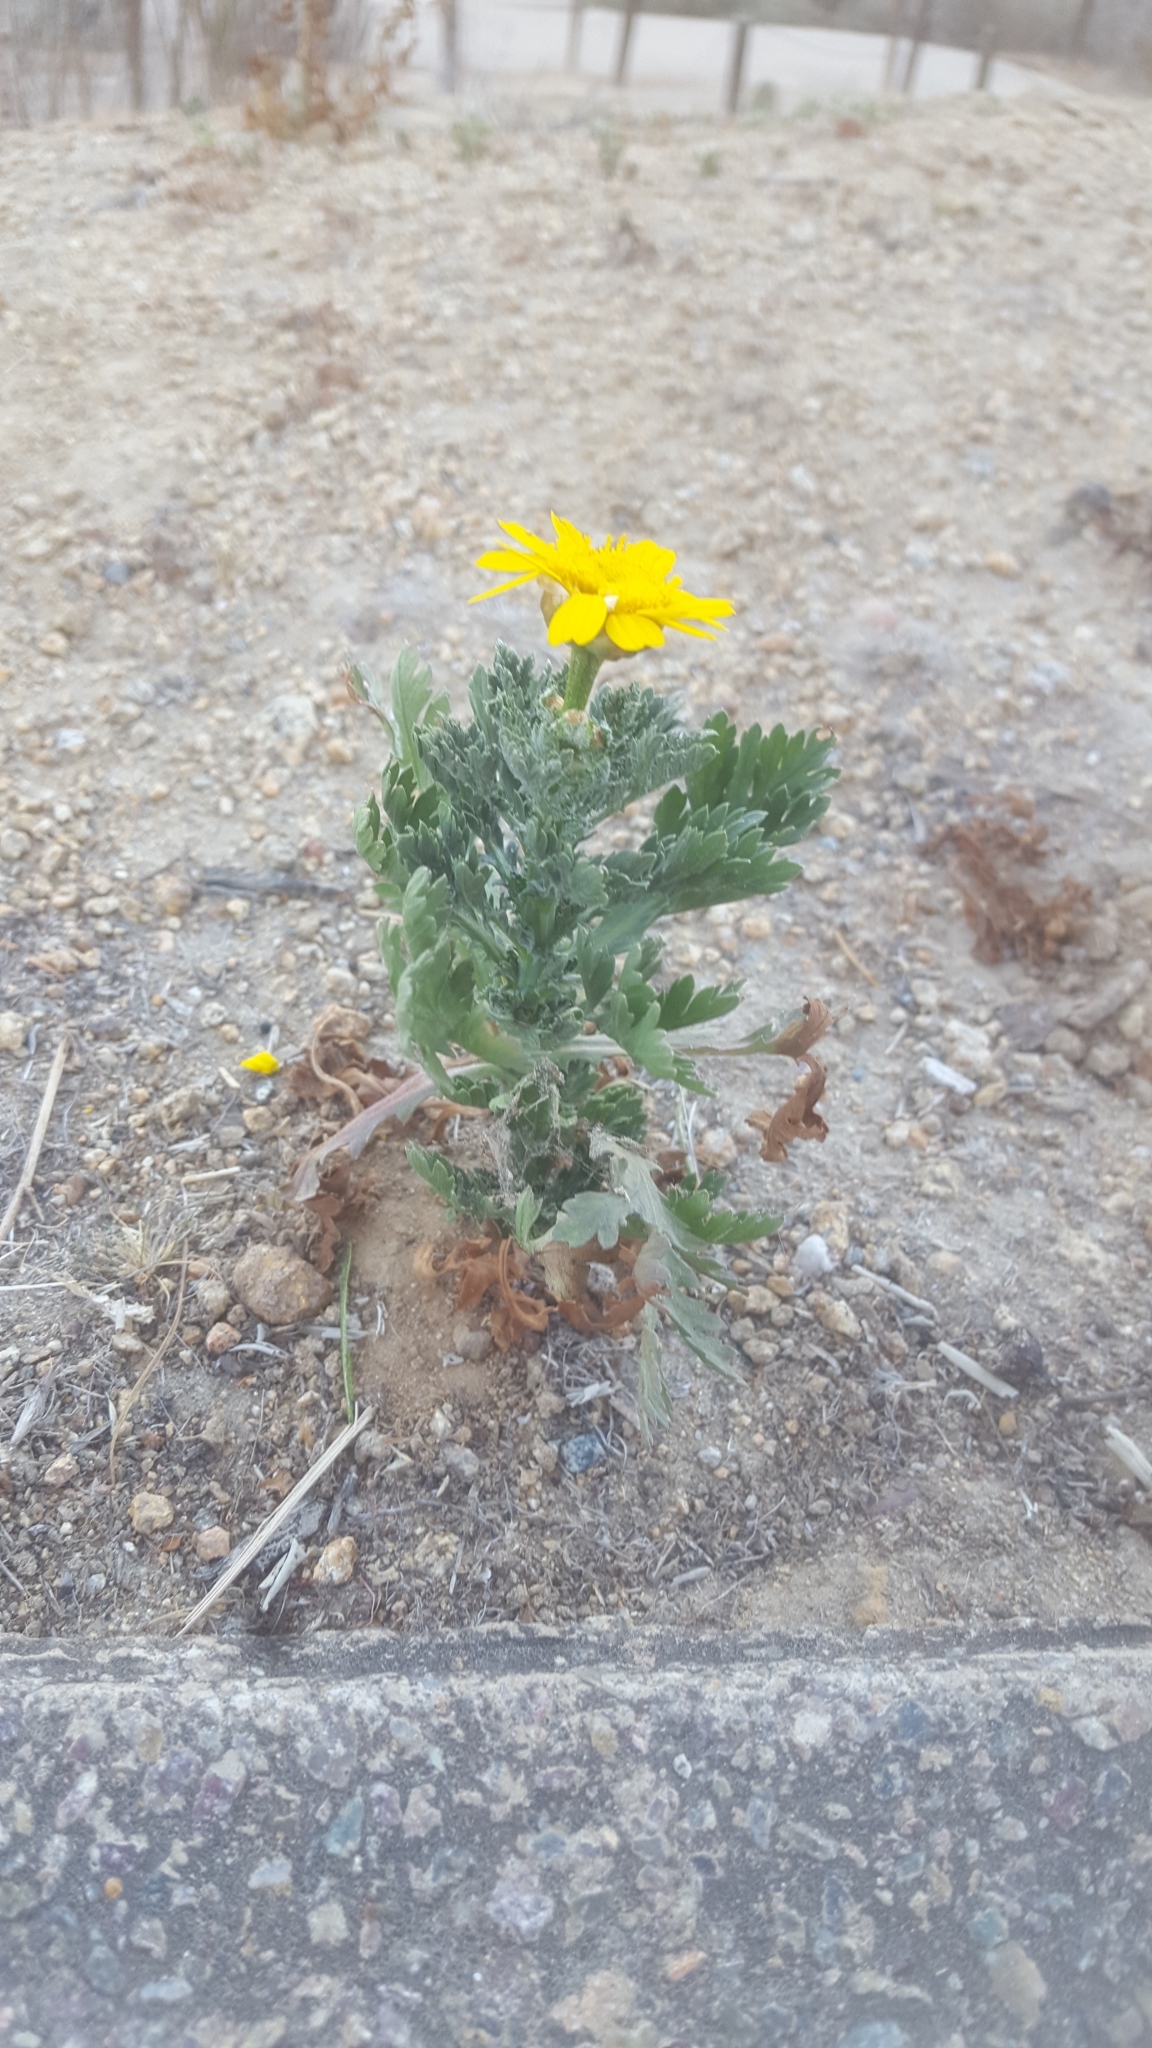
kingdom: Plantae
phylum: Tracheophyta
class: Magnoliopsida
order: Asterales
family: Asteraceae
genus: Glebionis
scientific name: Glebionis coronaria
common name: Crowndaisy
